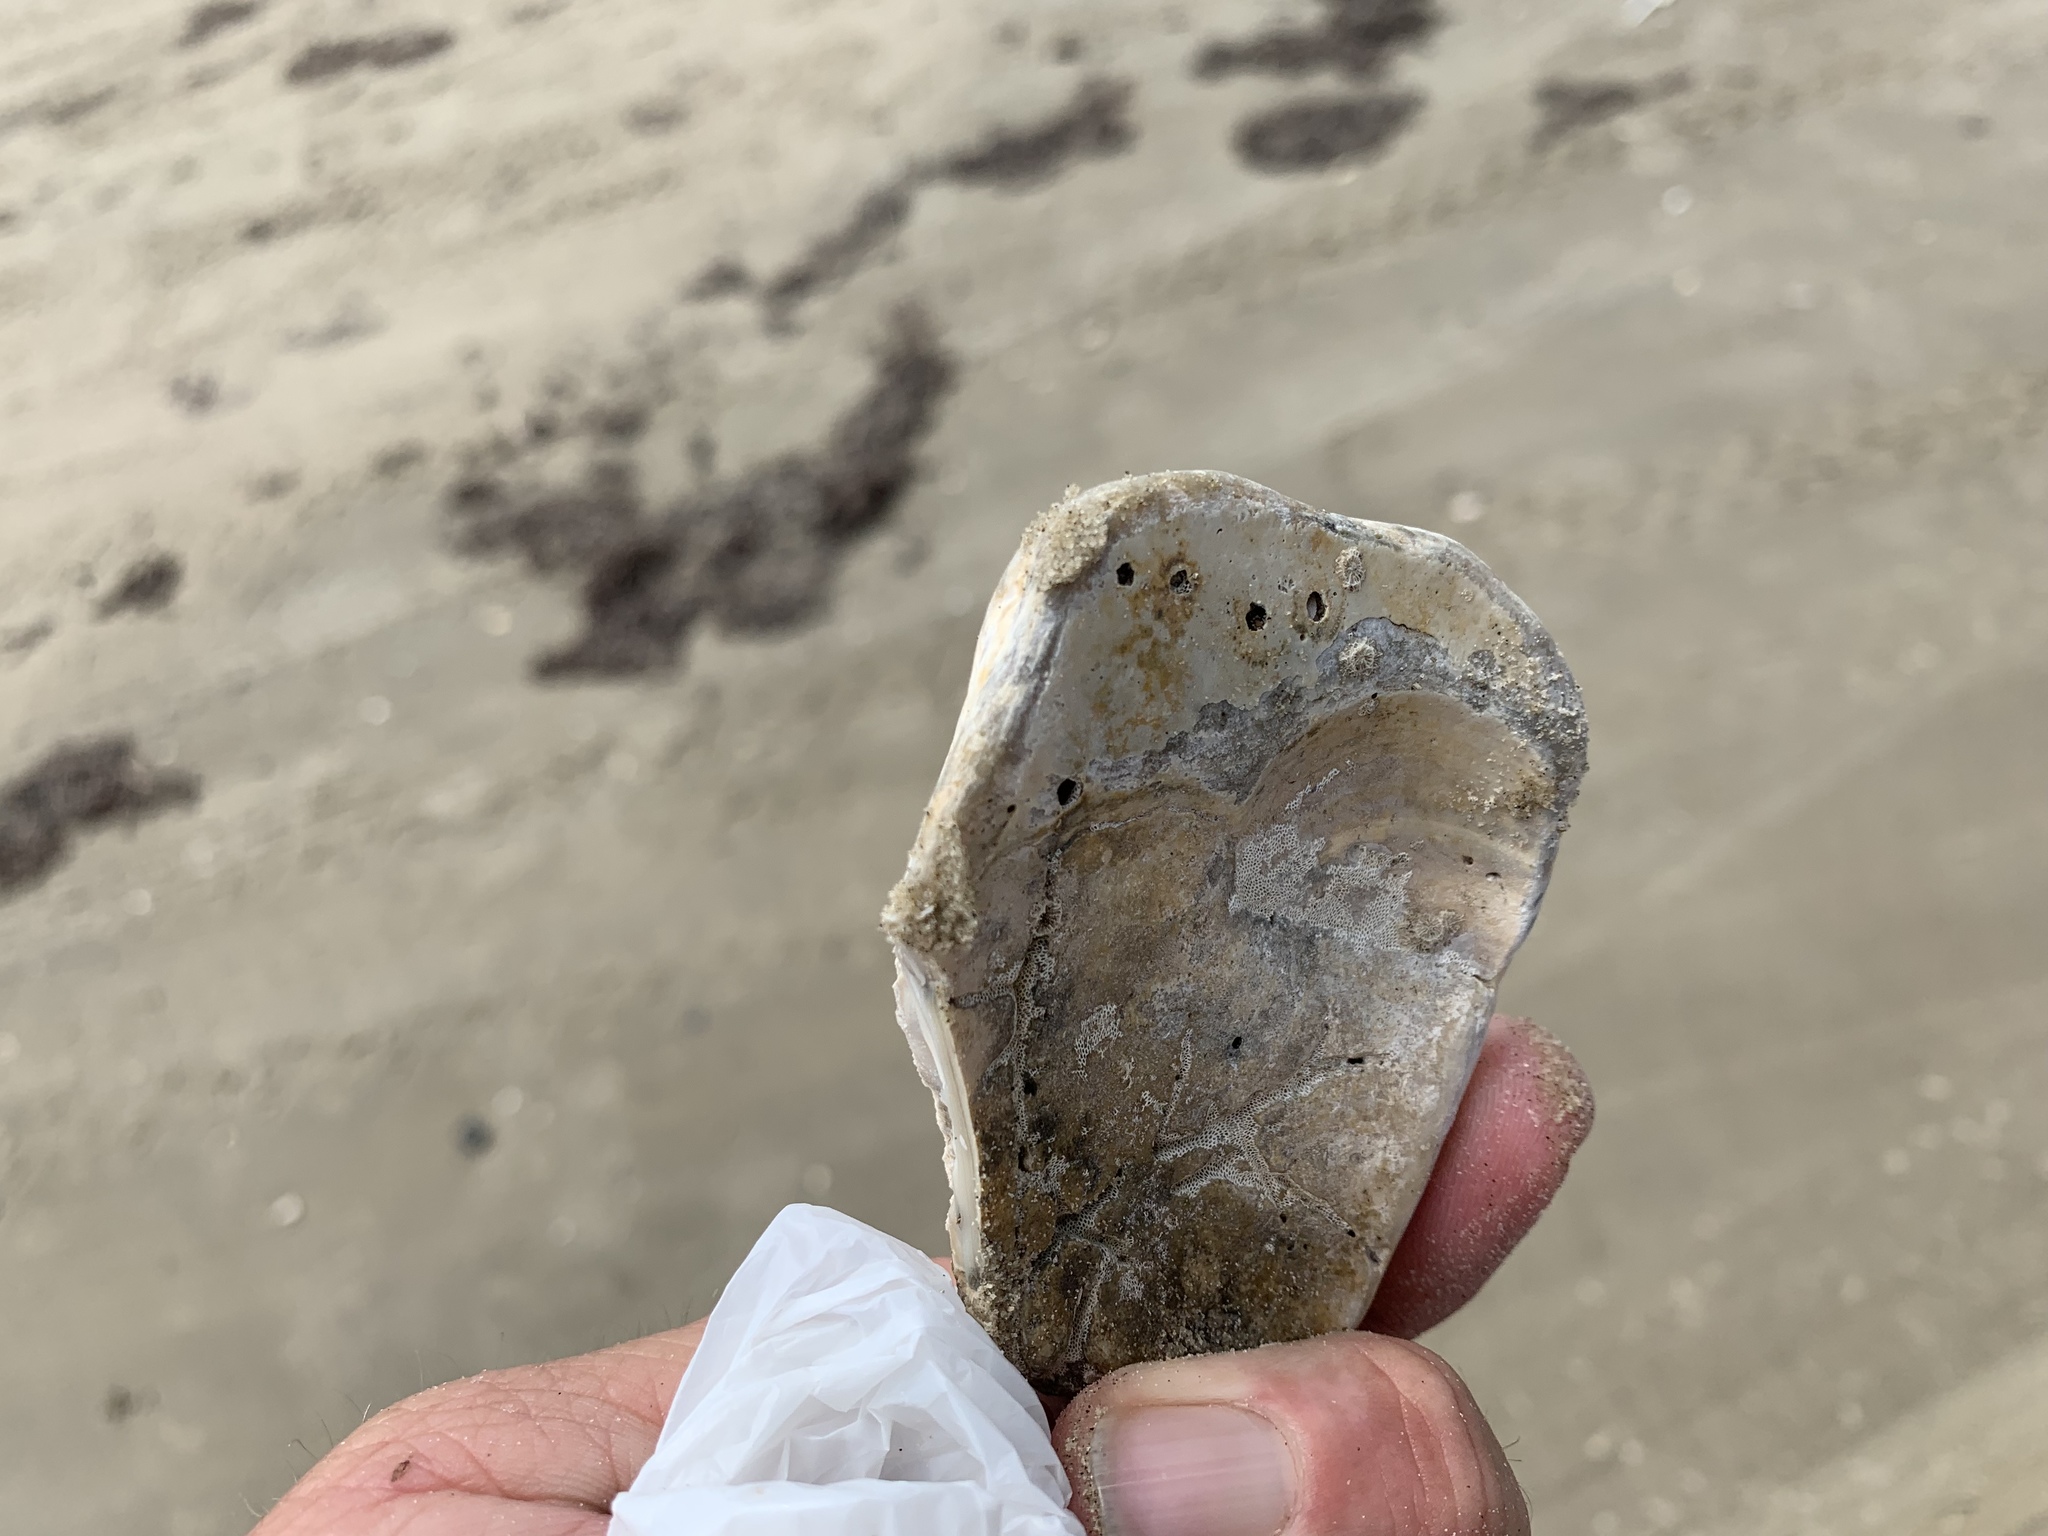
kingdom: Animalia
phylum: Mollusca
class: Bivalvia
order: Venerida
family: Veneridae
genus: Mercenaria
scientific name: Mercenaria campechiensis
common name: Südliche quahog-muschel
